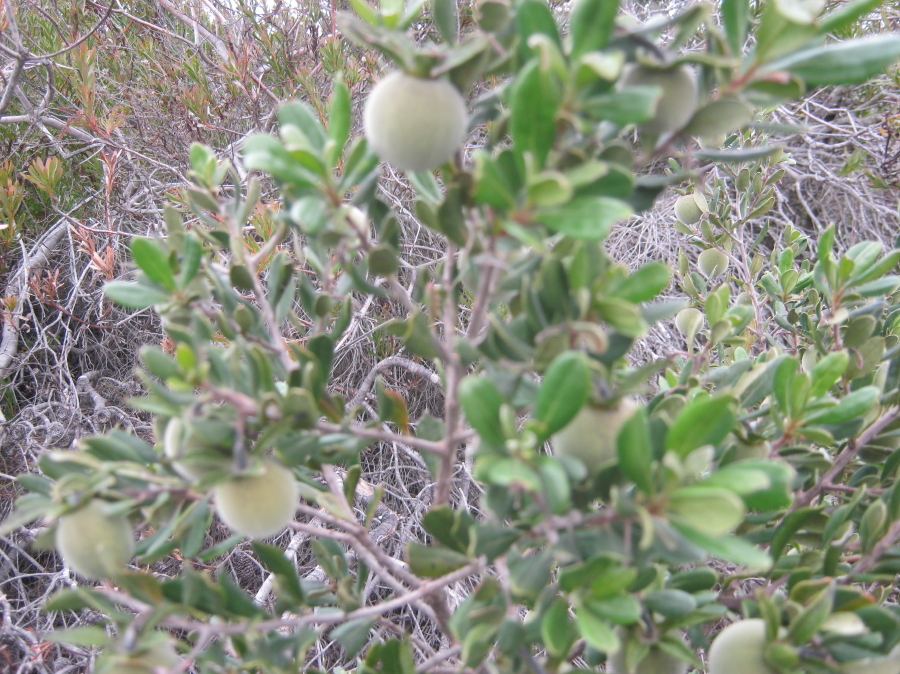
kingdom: Plantae
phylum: Tracheophyta
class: Magnoliopsida
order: Ericales
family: Ebenaceae
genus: Diospyros
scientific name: Diospyros dichrophylla
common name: Common star-apple
